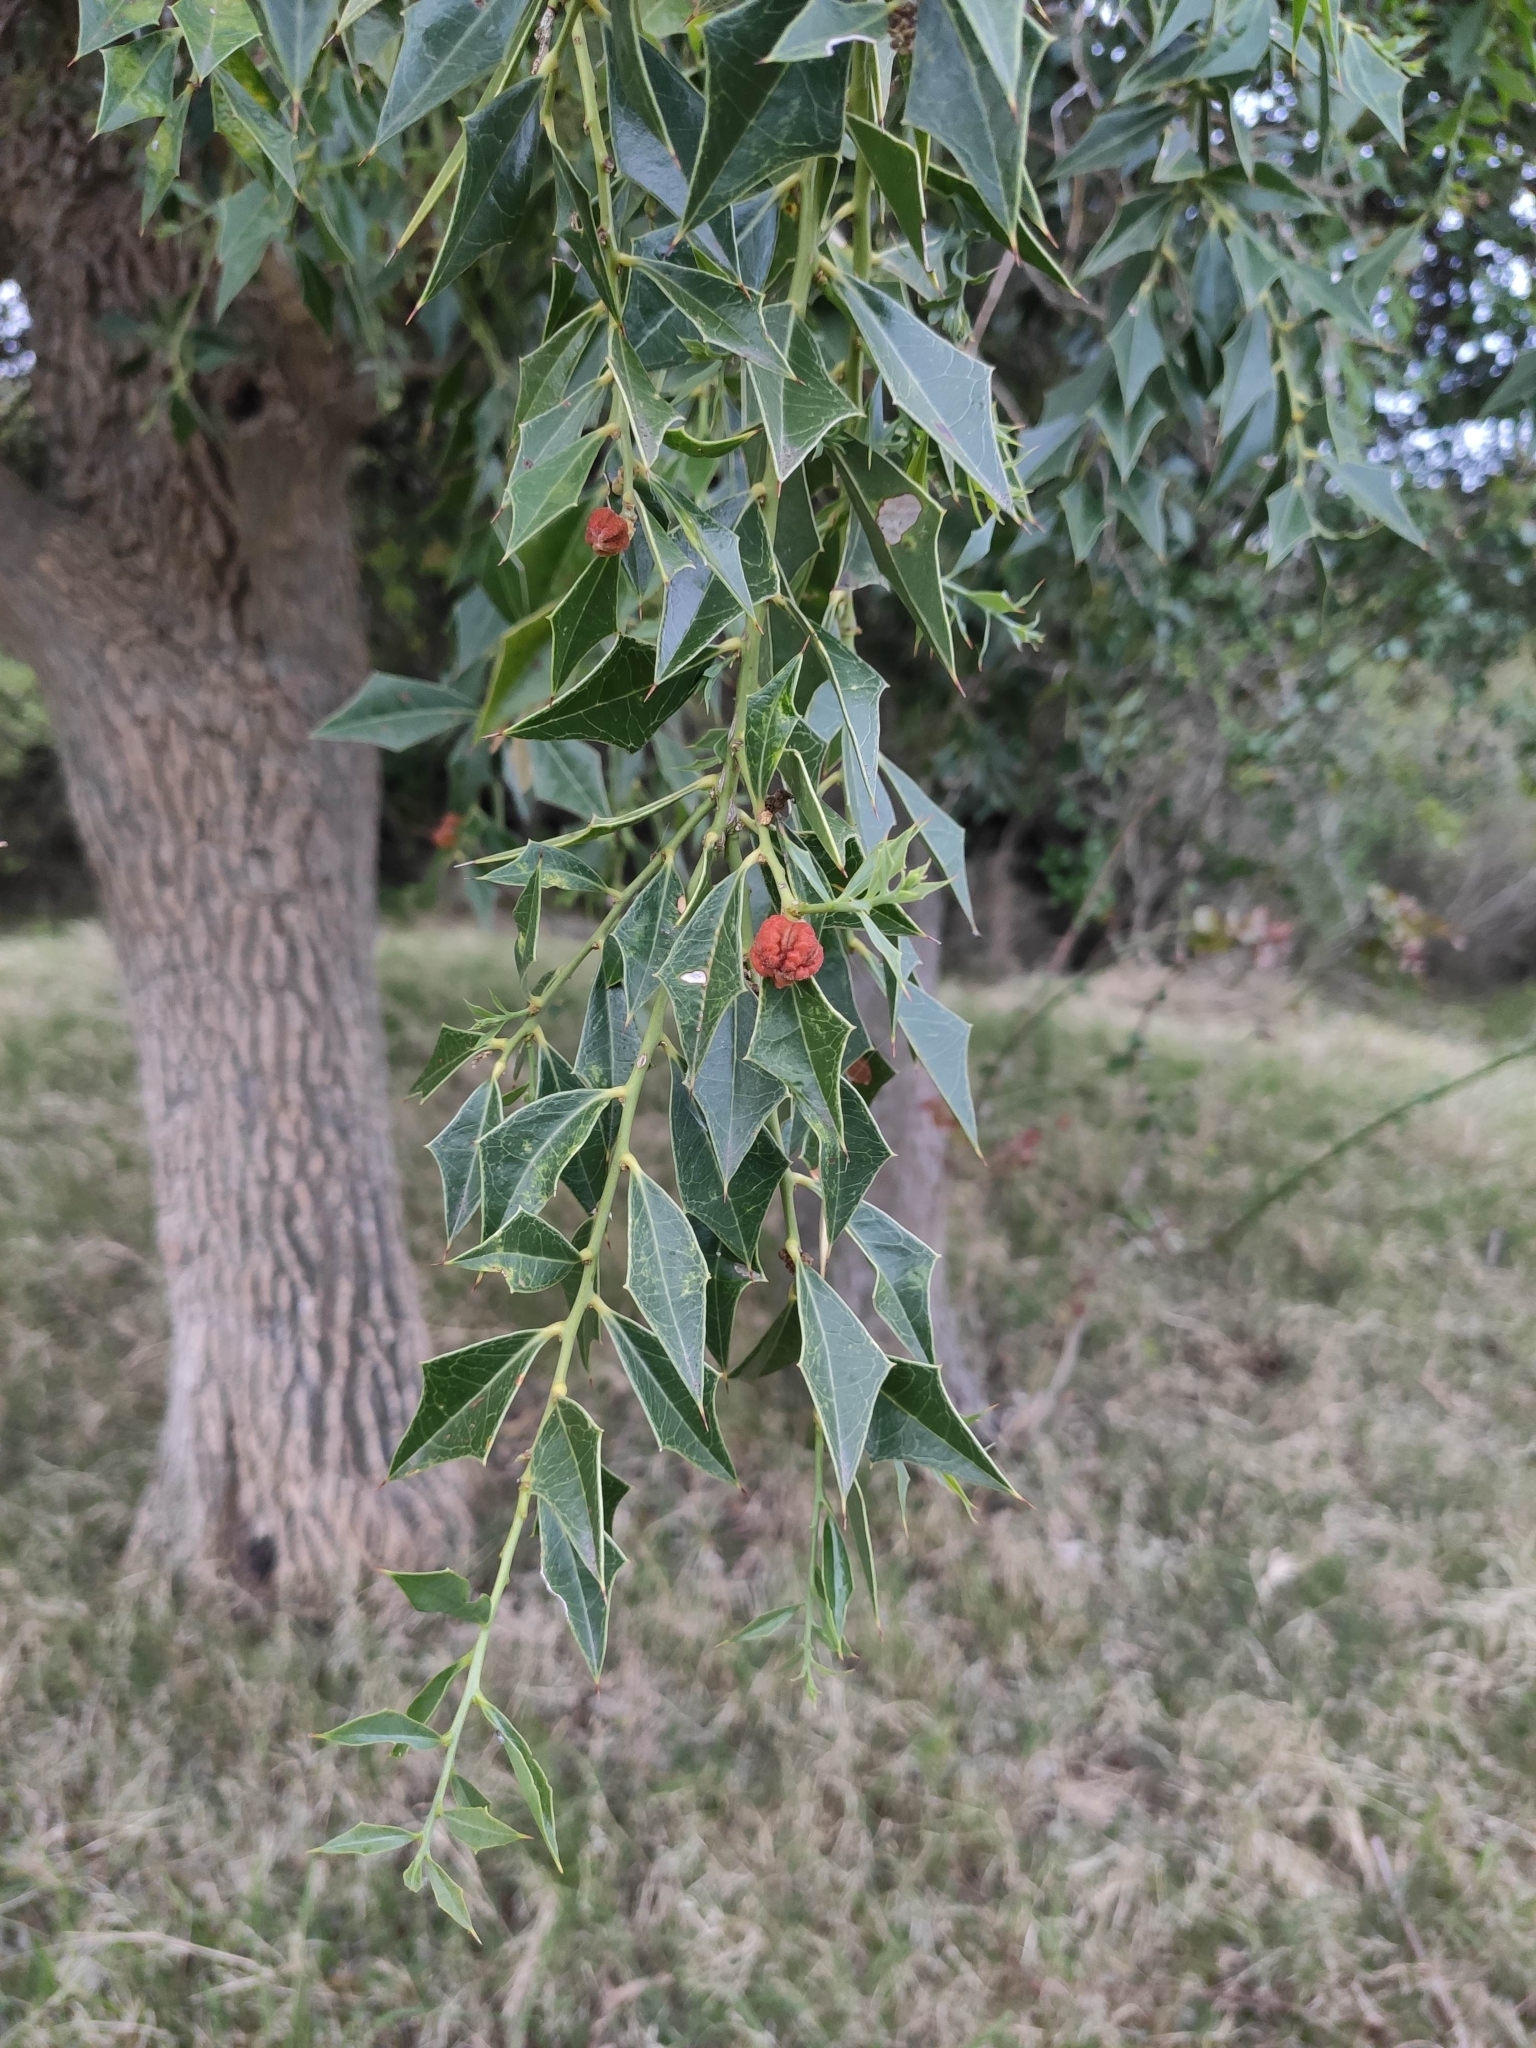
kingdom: Plantae
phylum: Tracheophyta
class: Magnoliopsida
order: Santalales
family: Cervantesiaceae
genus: Jodina
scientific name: Jodina rhombifolia
